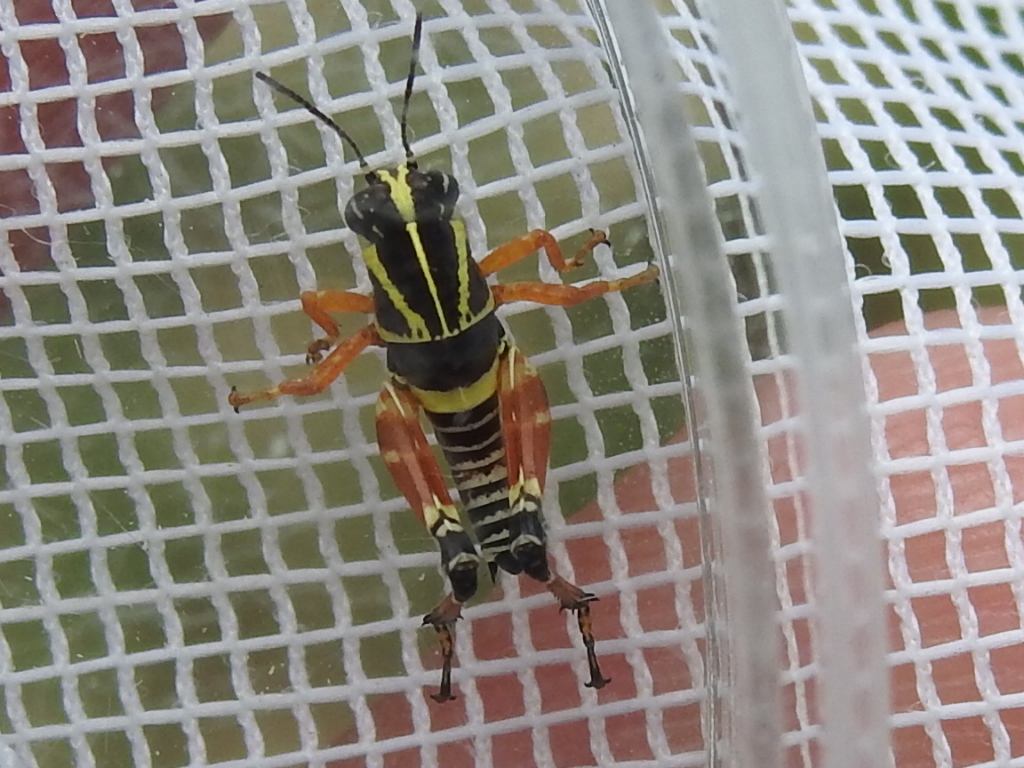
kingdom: Animalia
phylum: Arthropoda
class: Insecta
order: Orthoptera
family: Acrididae
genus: Aidemona
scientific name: Aidemona azteca
